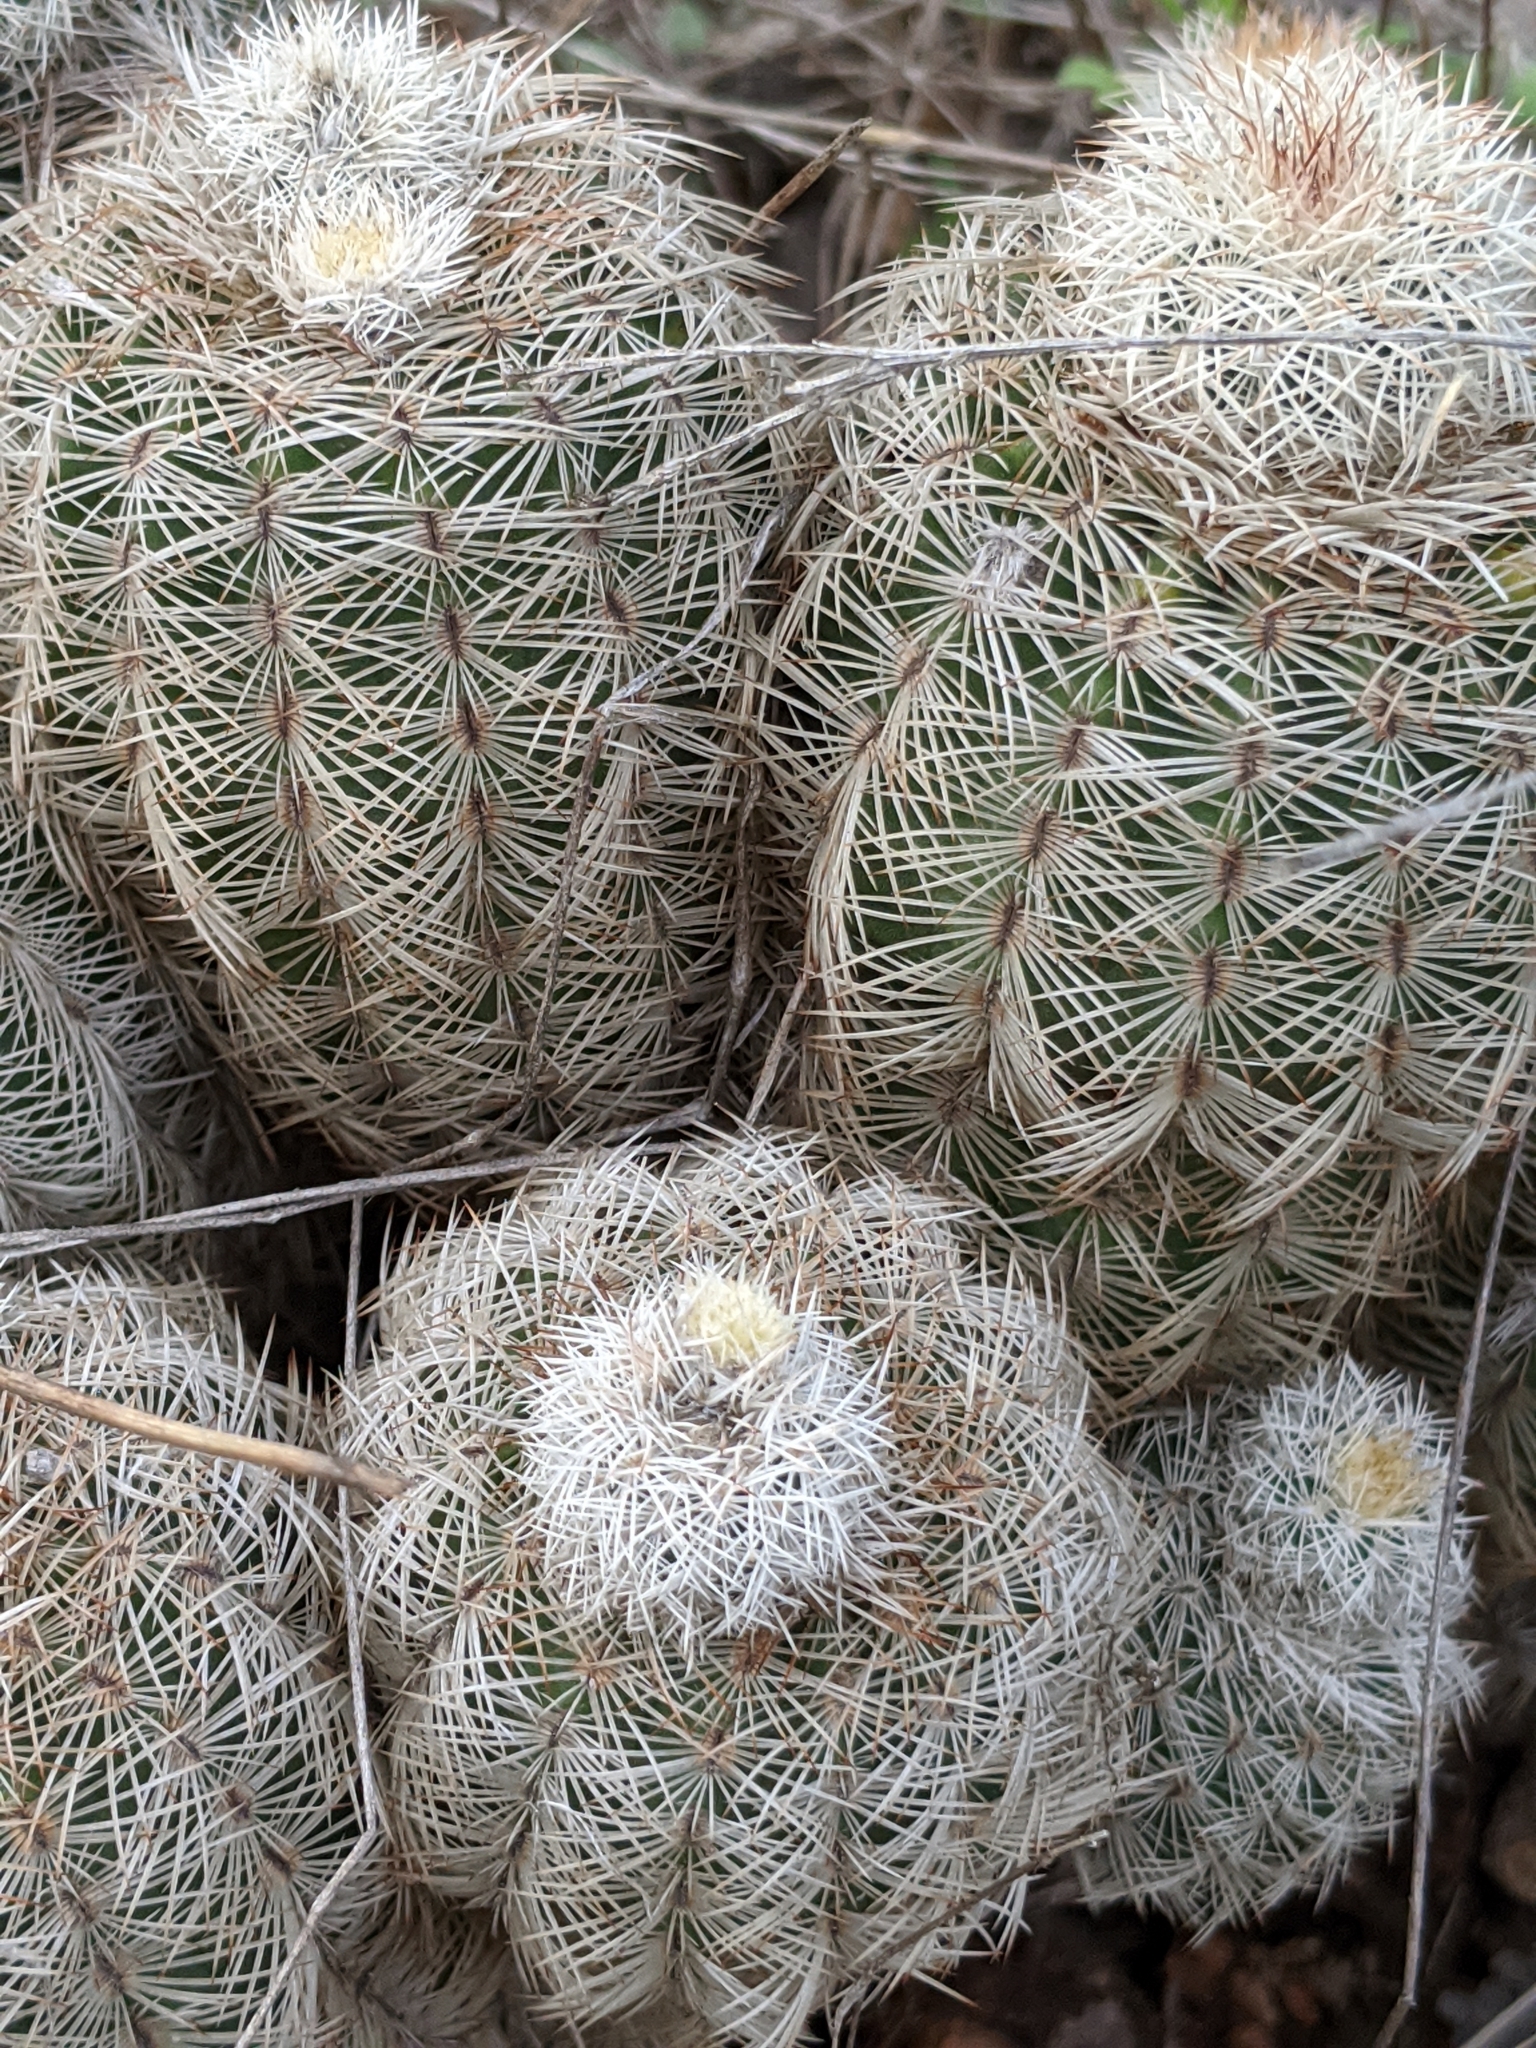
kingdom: Plantae
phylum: Tracheophyta
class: Magnoliopsida
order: Caryophyllales
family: Cactaceae
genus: Echinocereus
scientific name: Echinocereus reichenbachii
